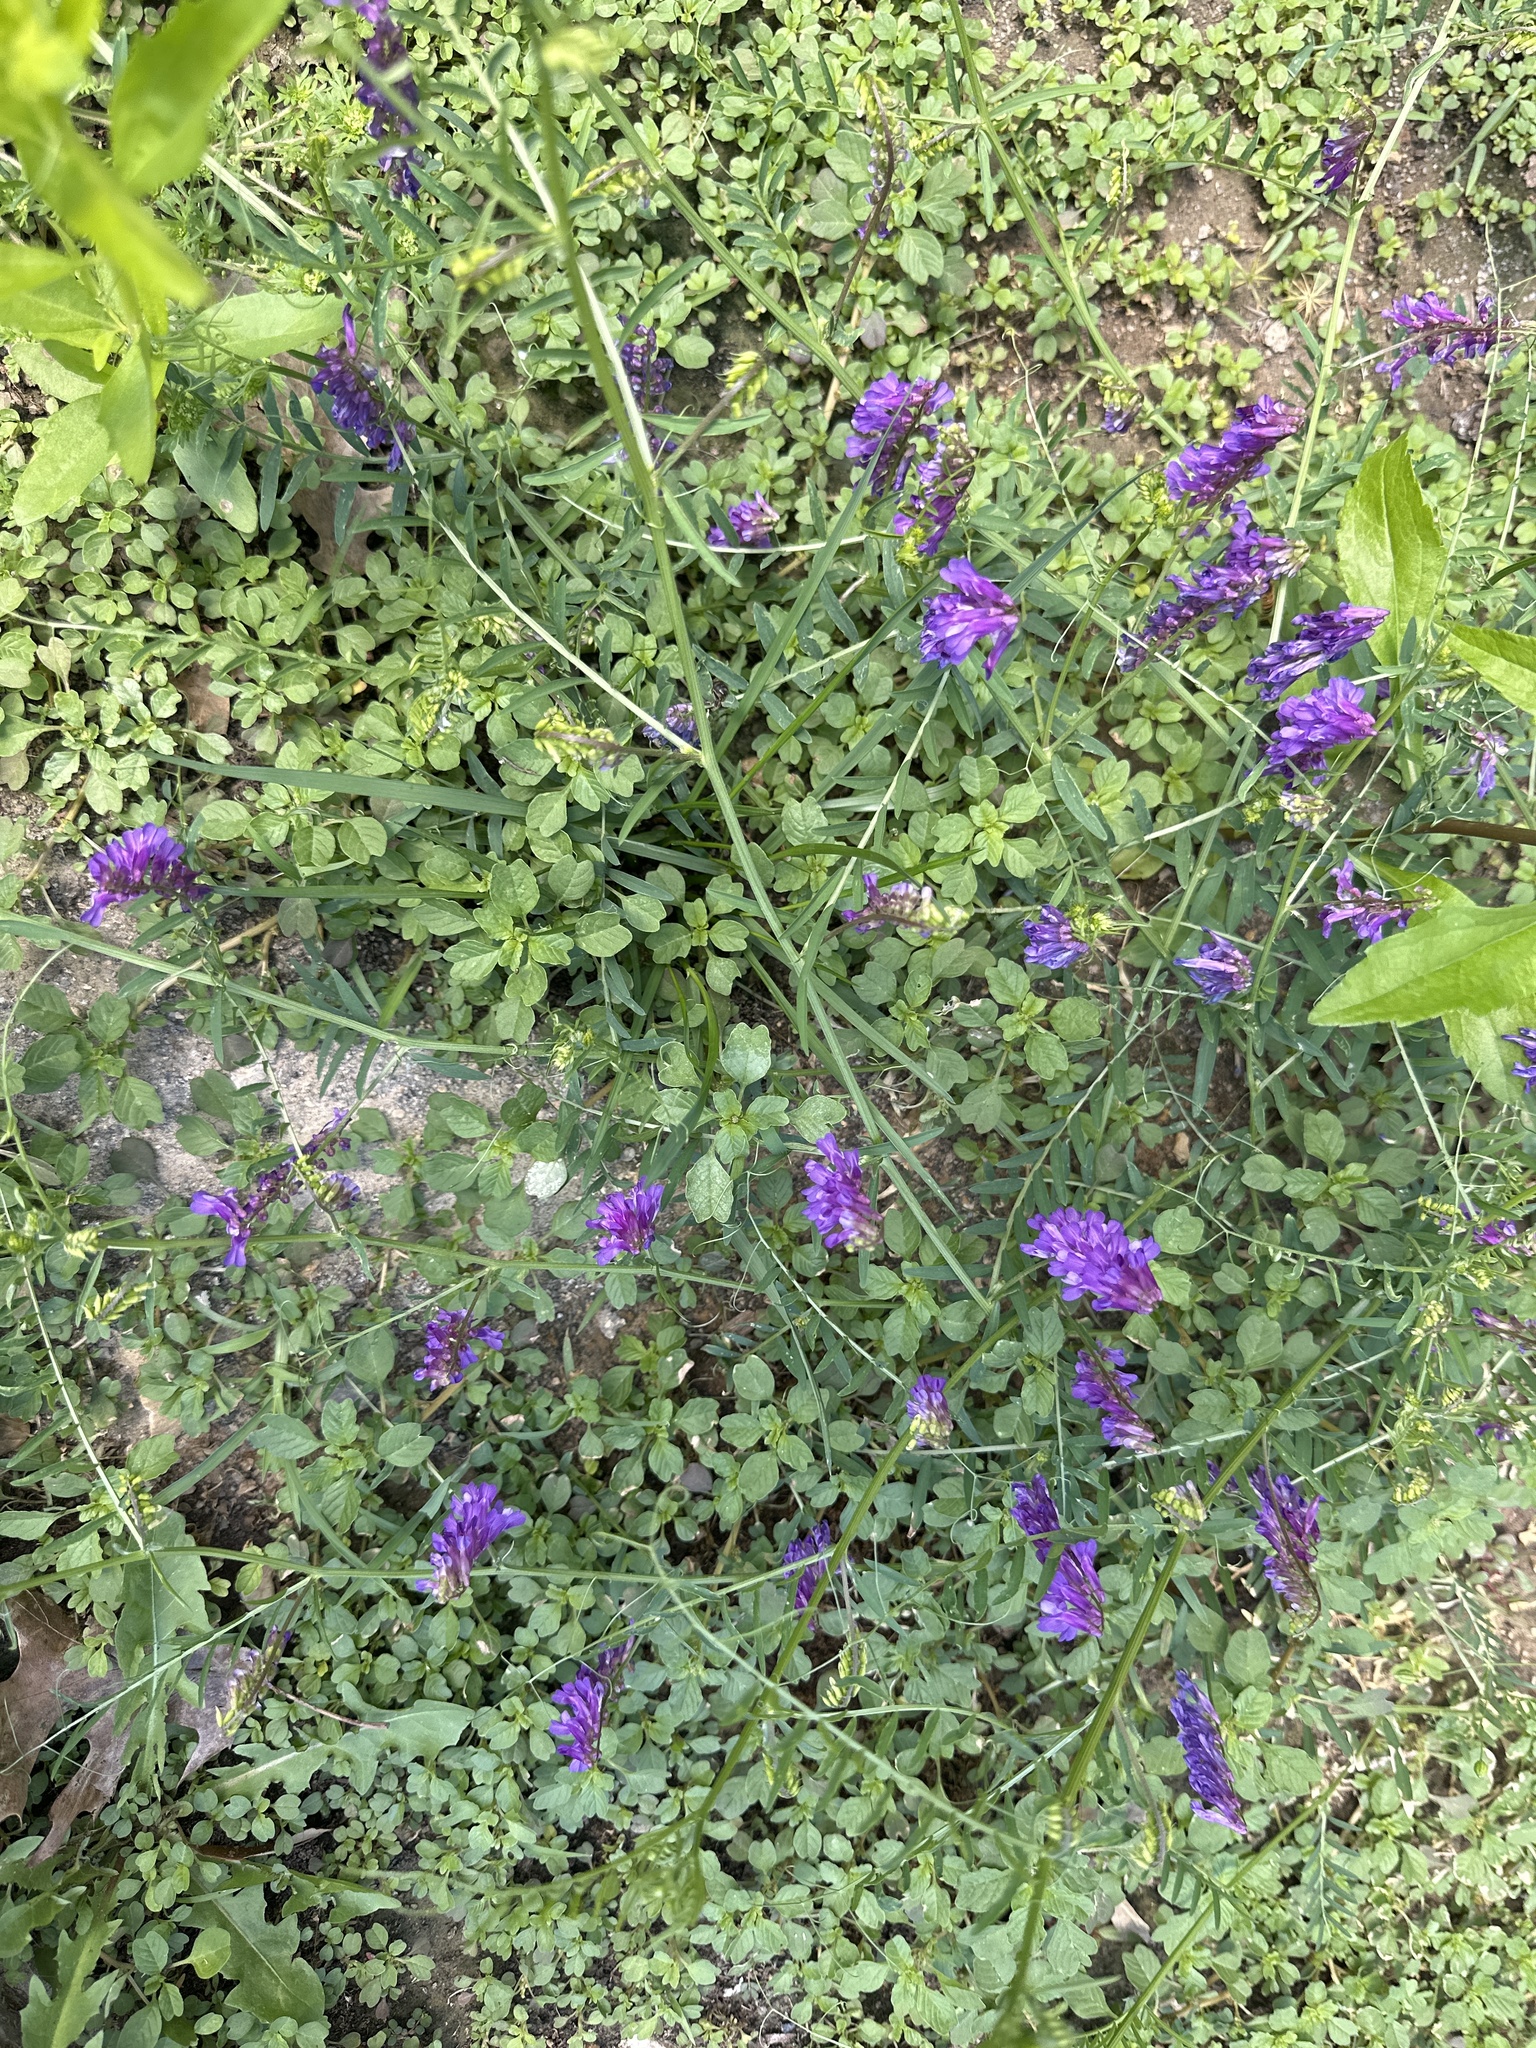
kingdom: Plantae
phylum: Tracheophyta
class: Magnoliopsida
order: Fabales
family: Fabaceae
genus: Vicia
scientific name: Vicia villosa
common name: Fodder vetch
